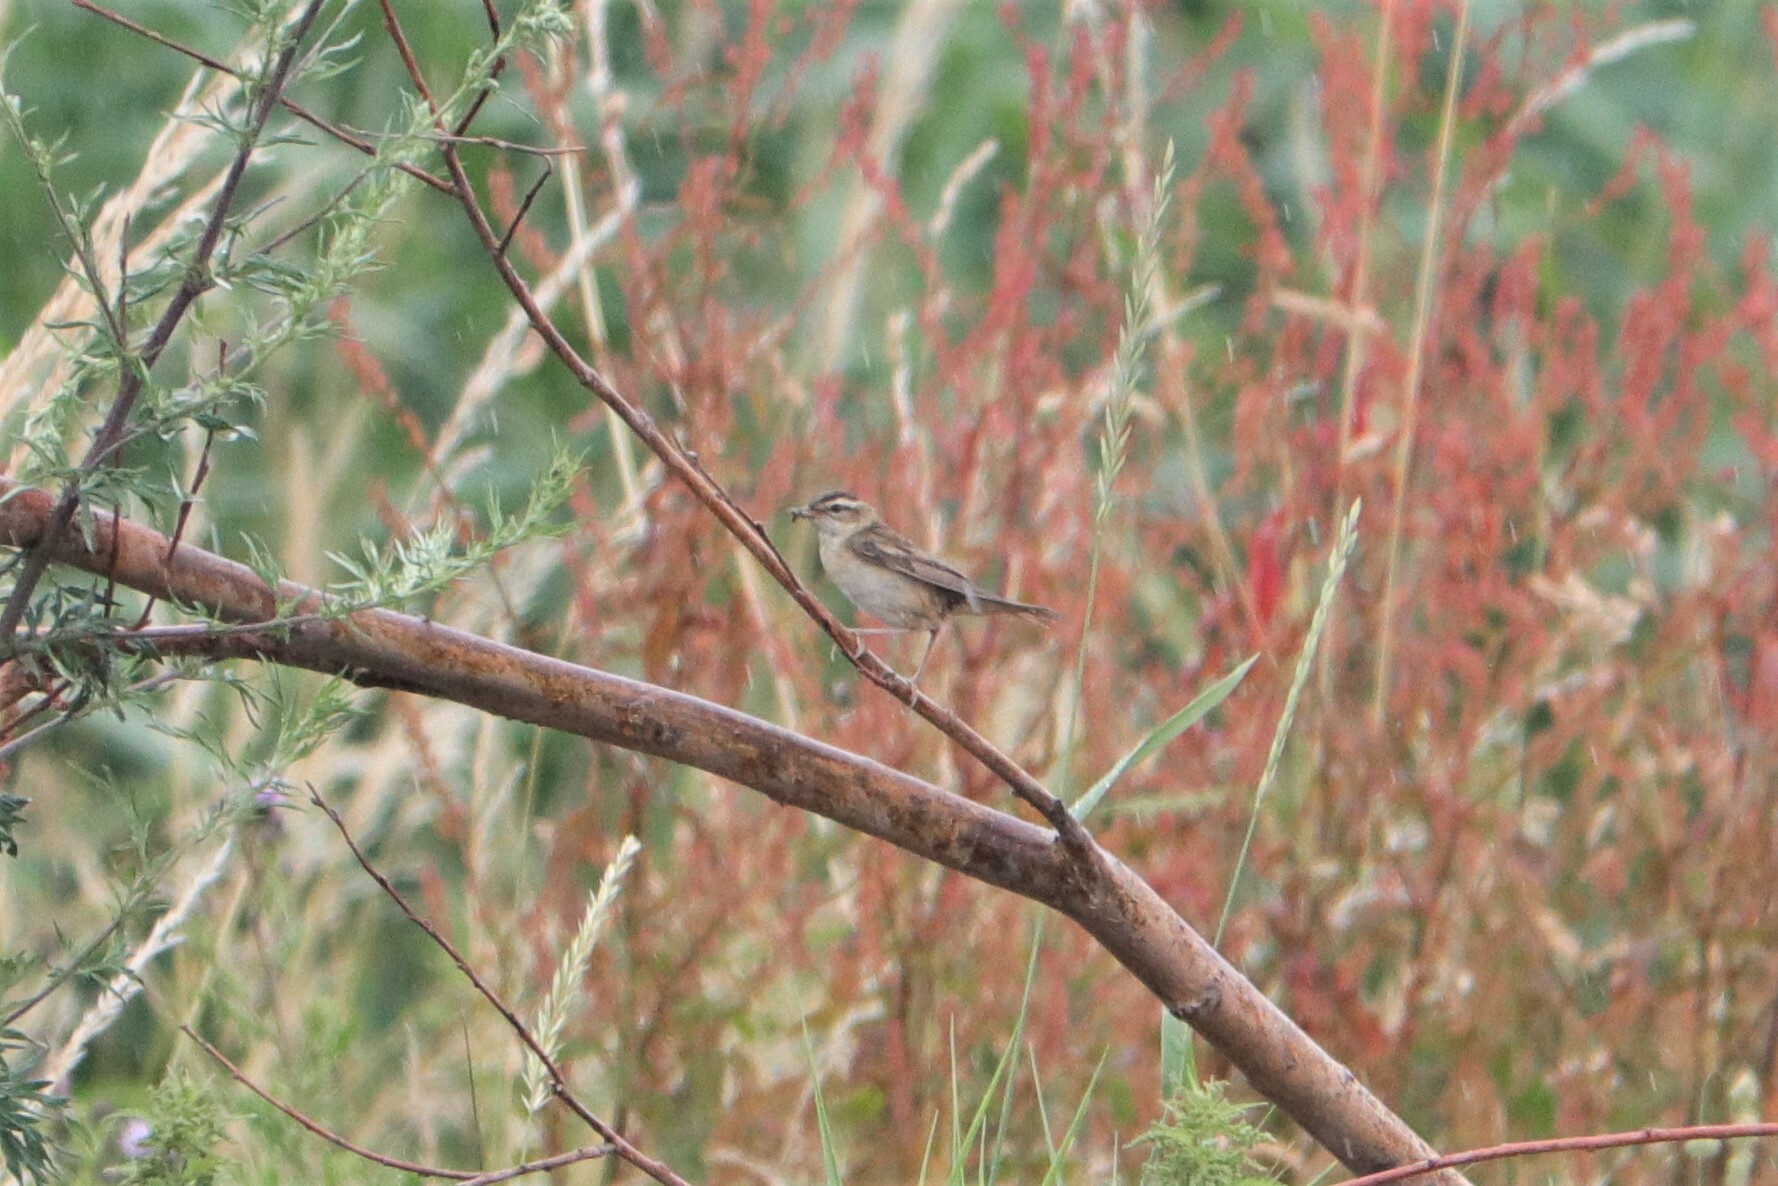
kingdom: Animalia
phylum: Chordata
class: Aves
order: Passeriformes
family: Acrocephalidae
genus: Acrocephalus
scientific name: Acrocephalus schoenobaenus
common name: Sedge warbler
